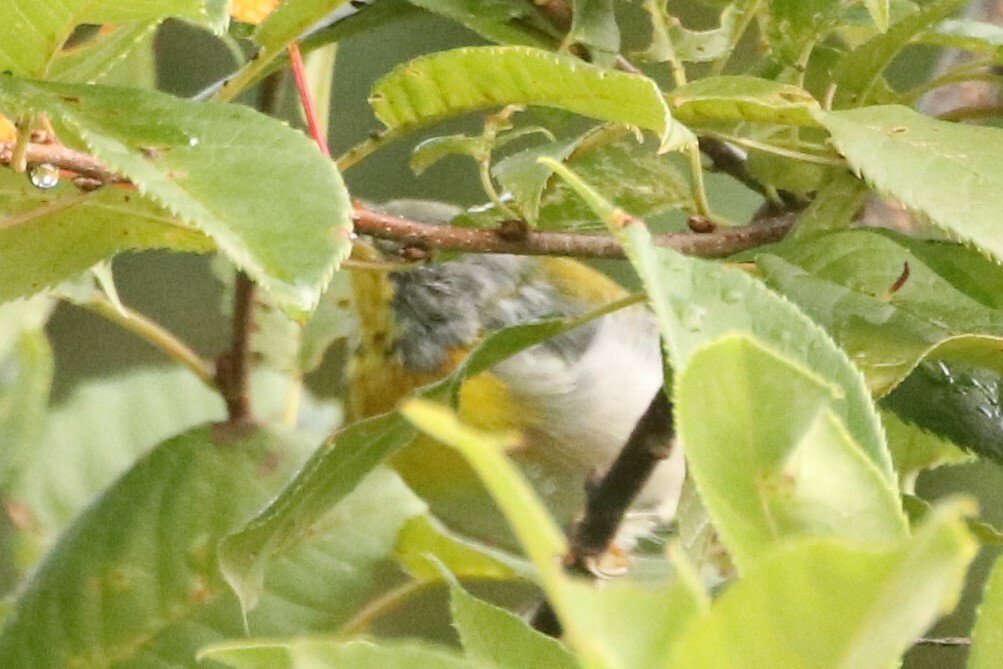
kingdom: Animalia
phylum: Chordata
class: Aves
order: Passeriformes
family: Parulidae
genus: Setophaga
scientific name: Setophaga americana
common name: Northern parula
